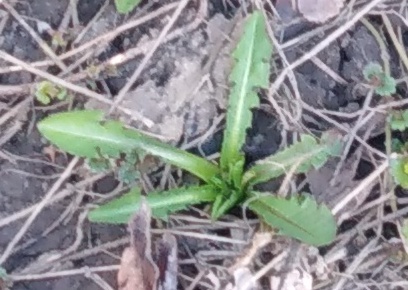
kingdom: Plantae
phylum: Tracheophyta
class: Magnoliopsida
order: Asterales
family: Asteraceae
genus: Taraxacum
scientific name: Taraxacum officinale
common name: Common dandelion
